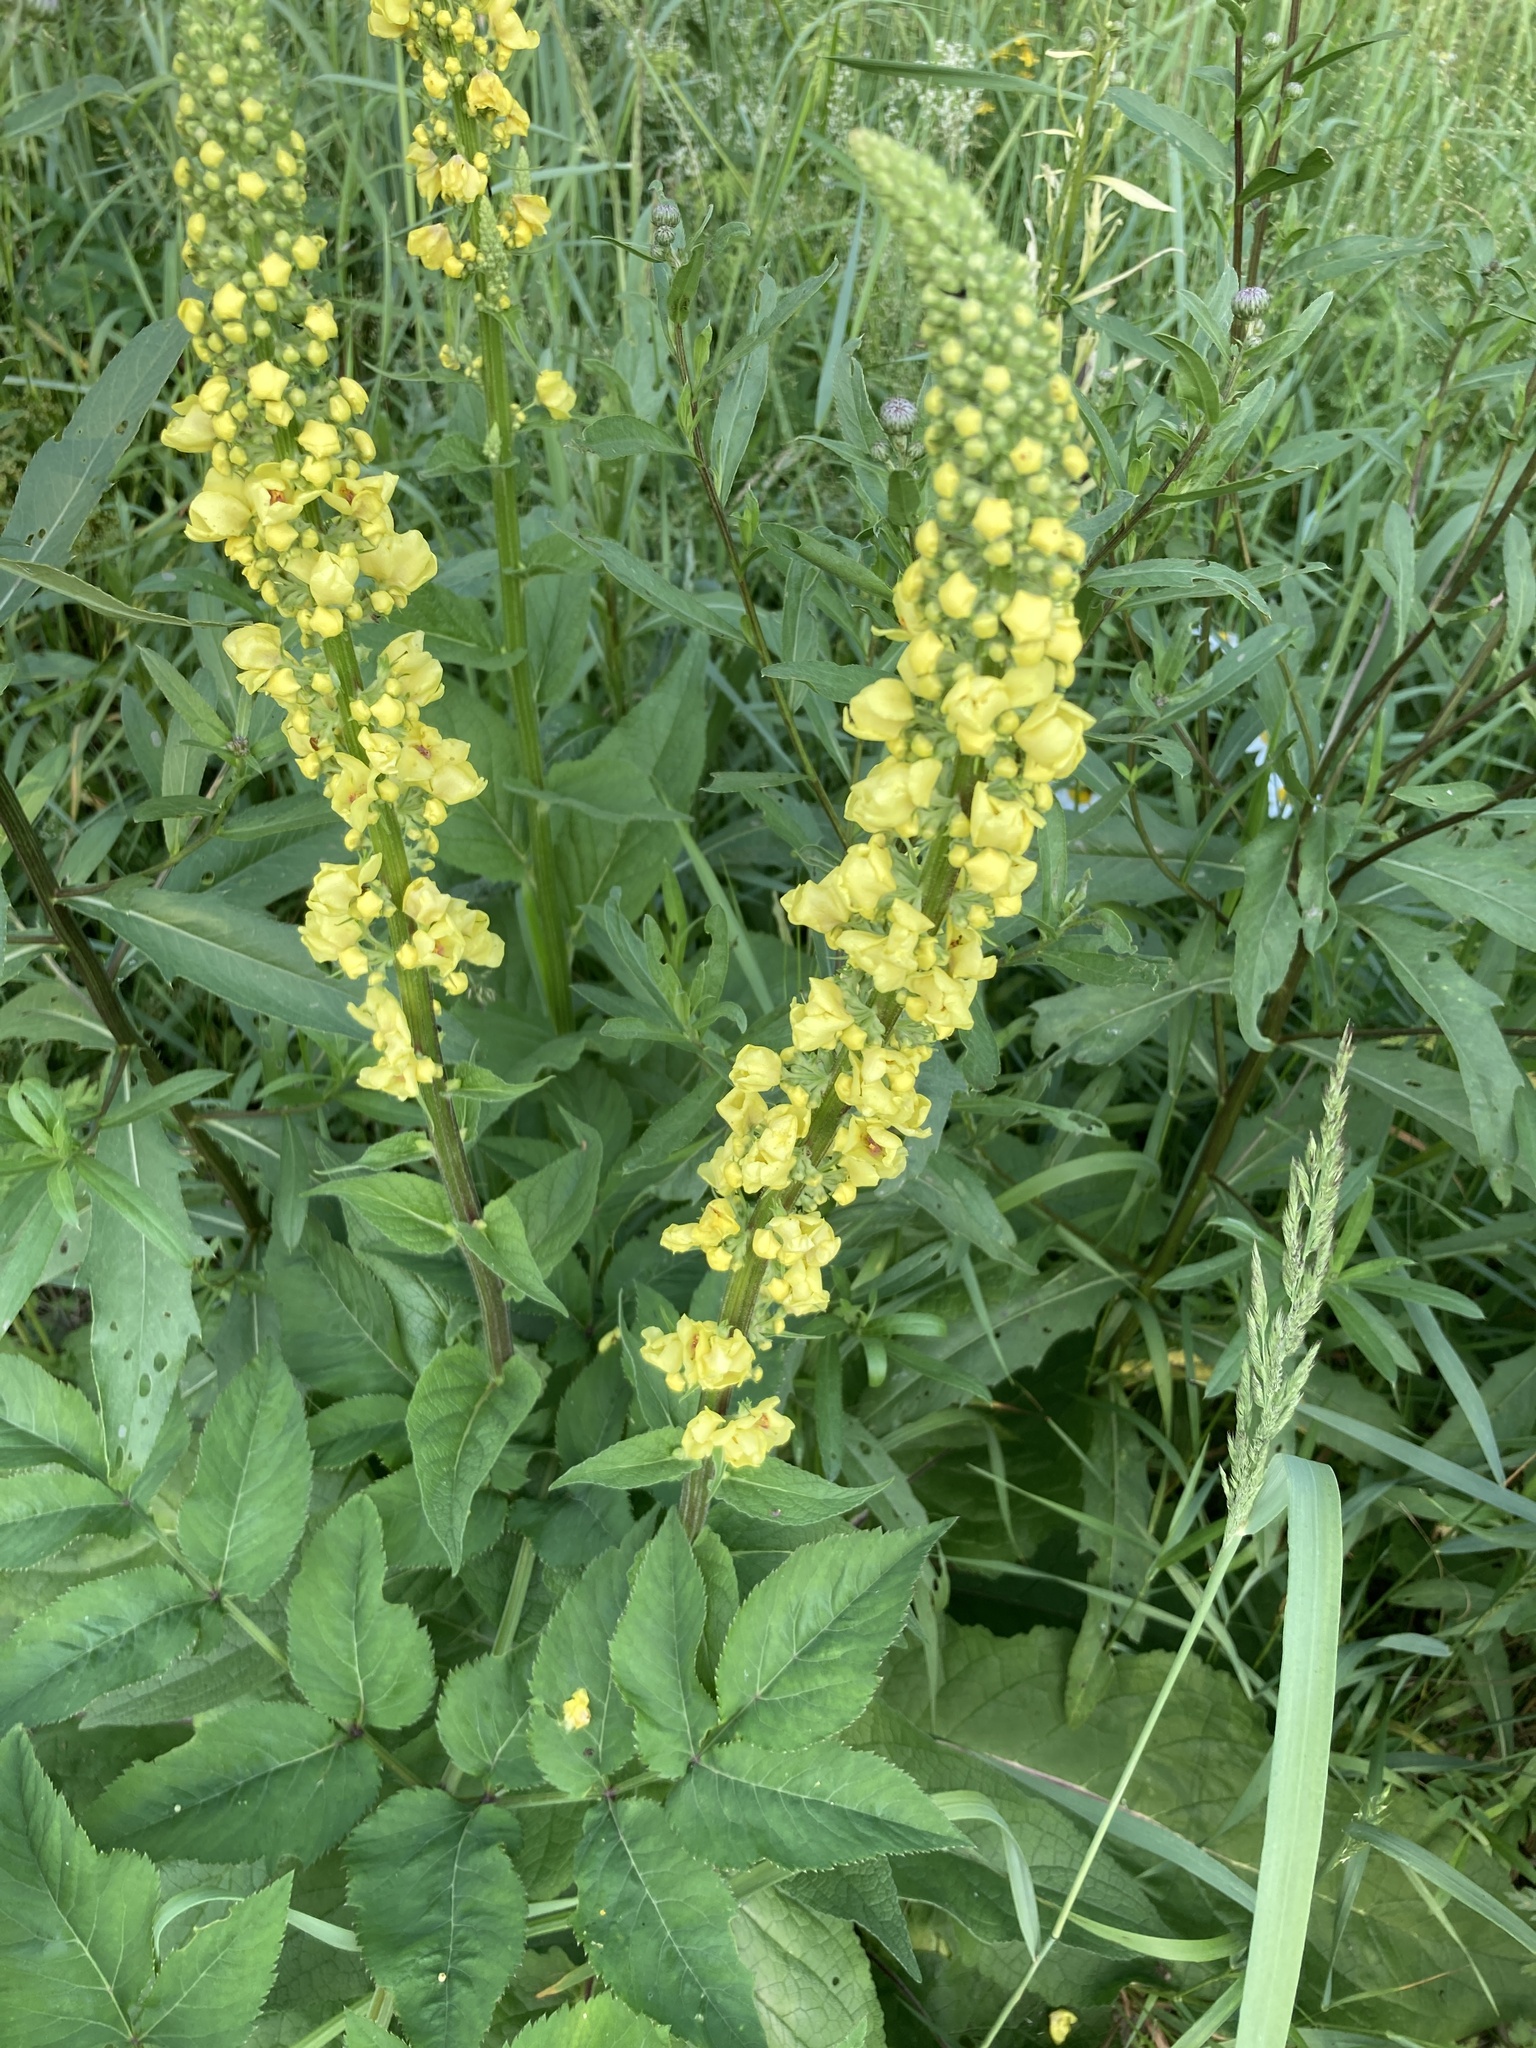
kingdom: Plantae
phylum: Tracheophyta
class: Magnoliopsida
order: Lamiales
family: Scrophulariaceae
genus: Verbascum
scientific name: Verbascum nigrum
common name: Dark mullein
